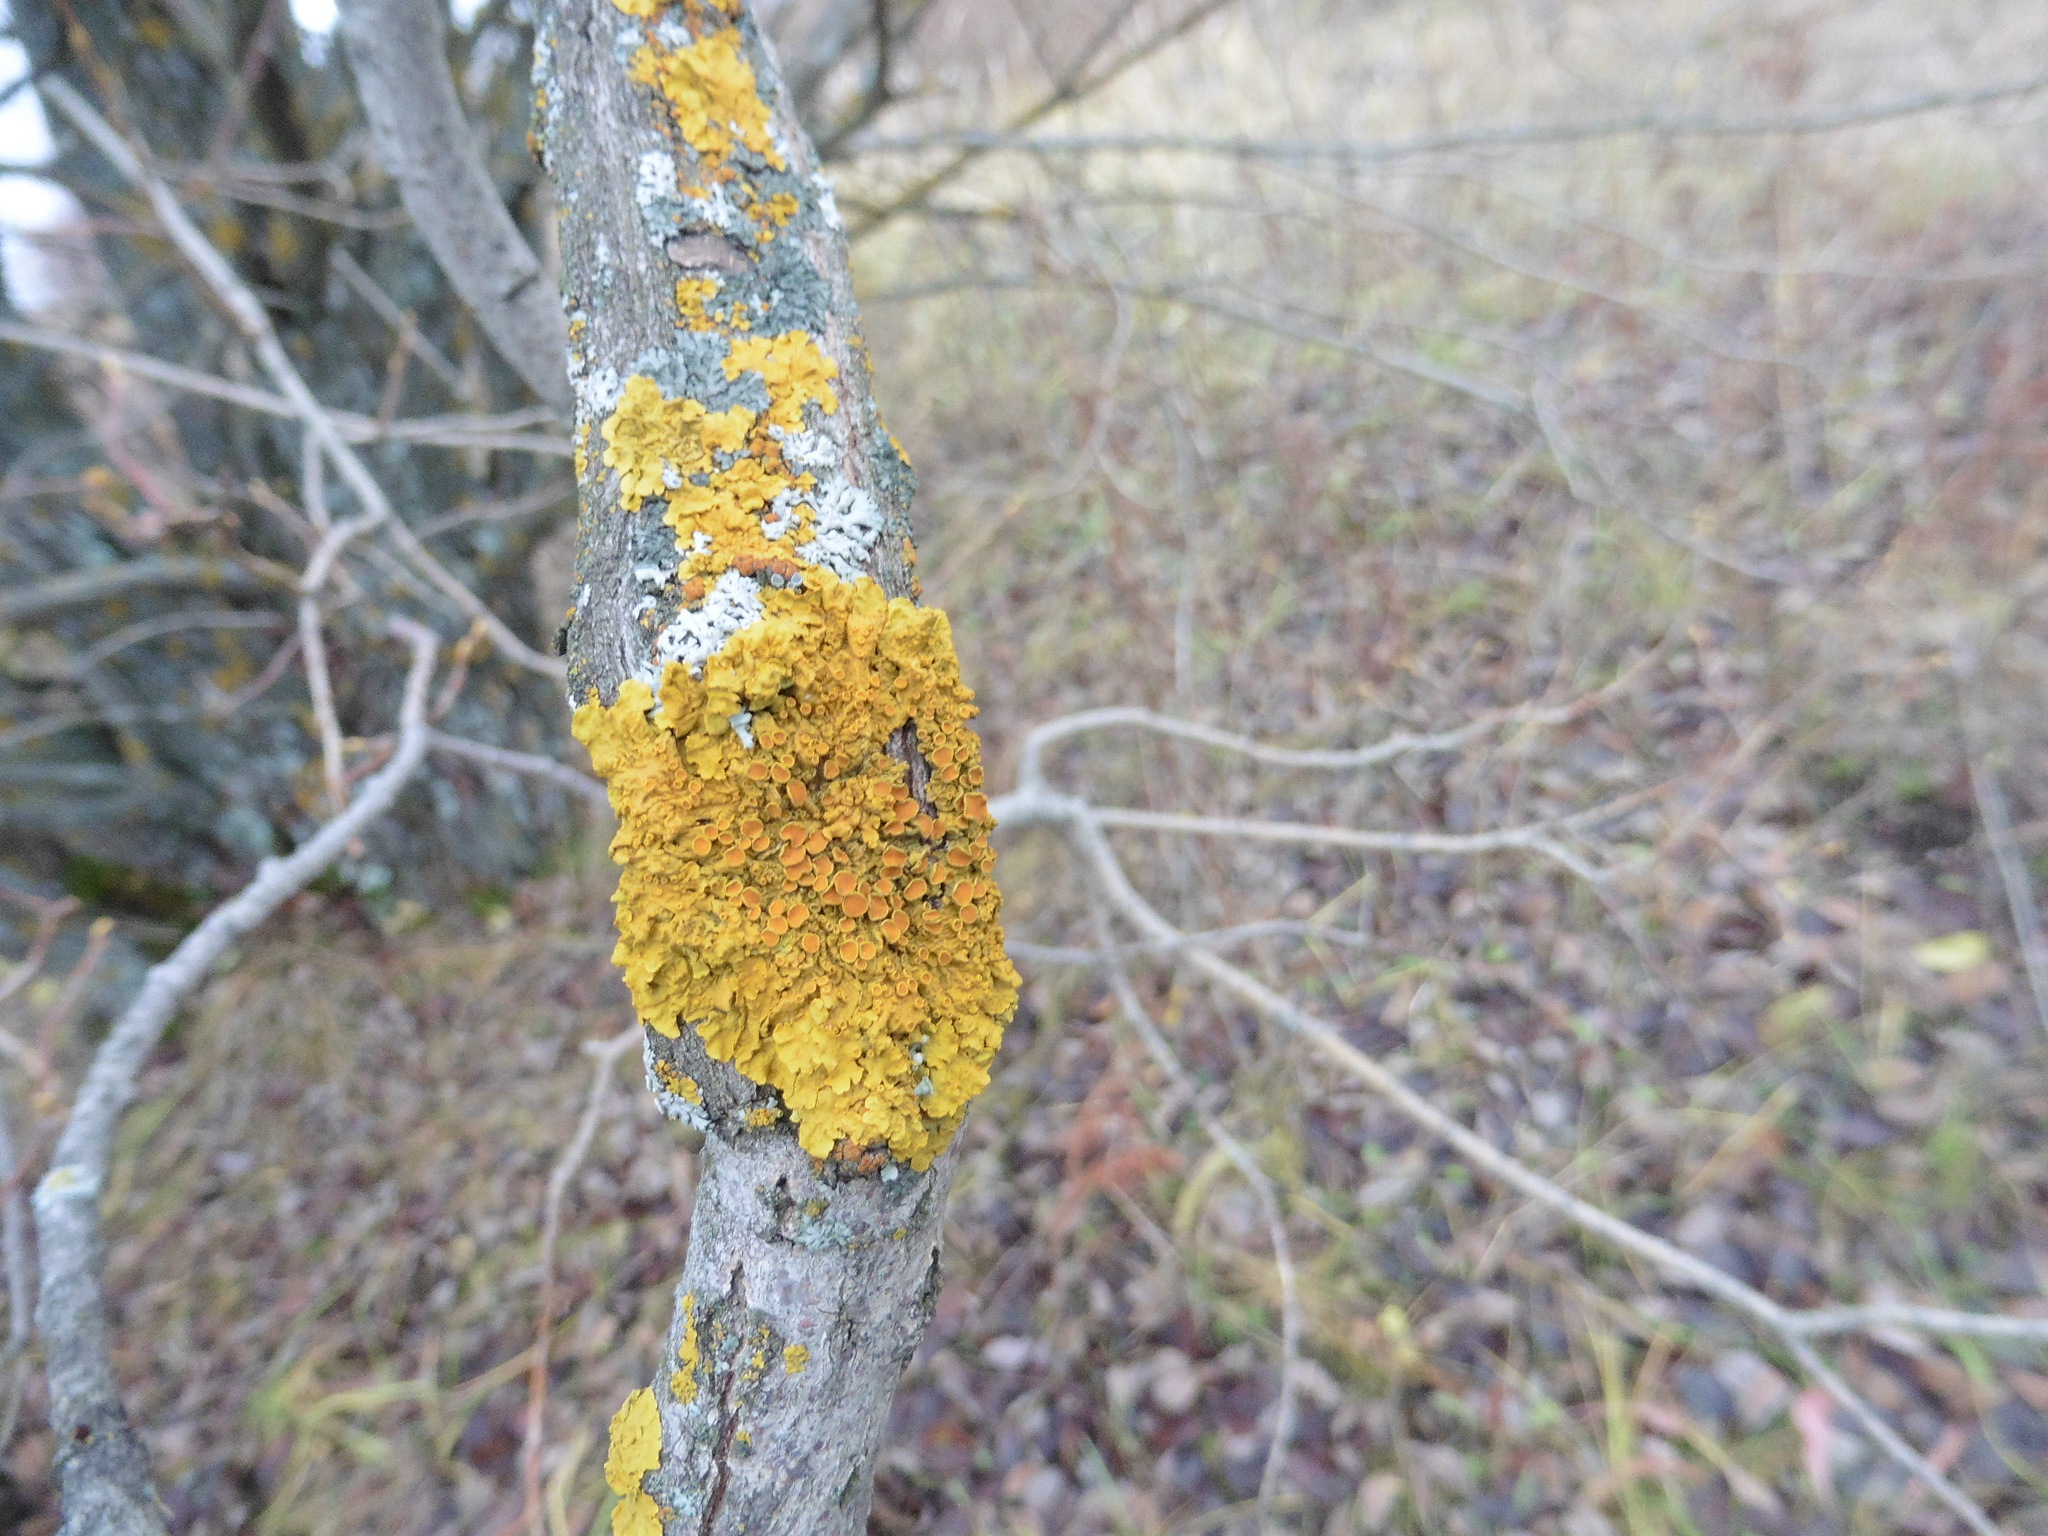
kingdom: Fungi
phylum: Ascomycota
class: Lecanoromycetes
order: Teloschistales
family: Teloschistaceae
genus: Xanthoria
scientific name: Xanthoria parietina
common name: Common orange lichen
